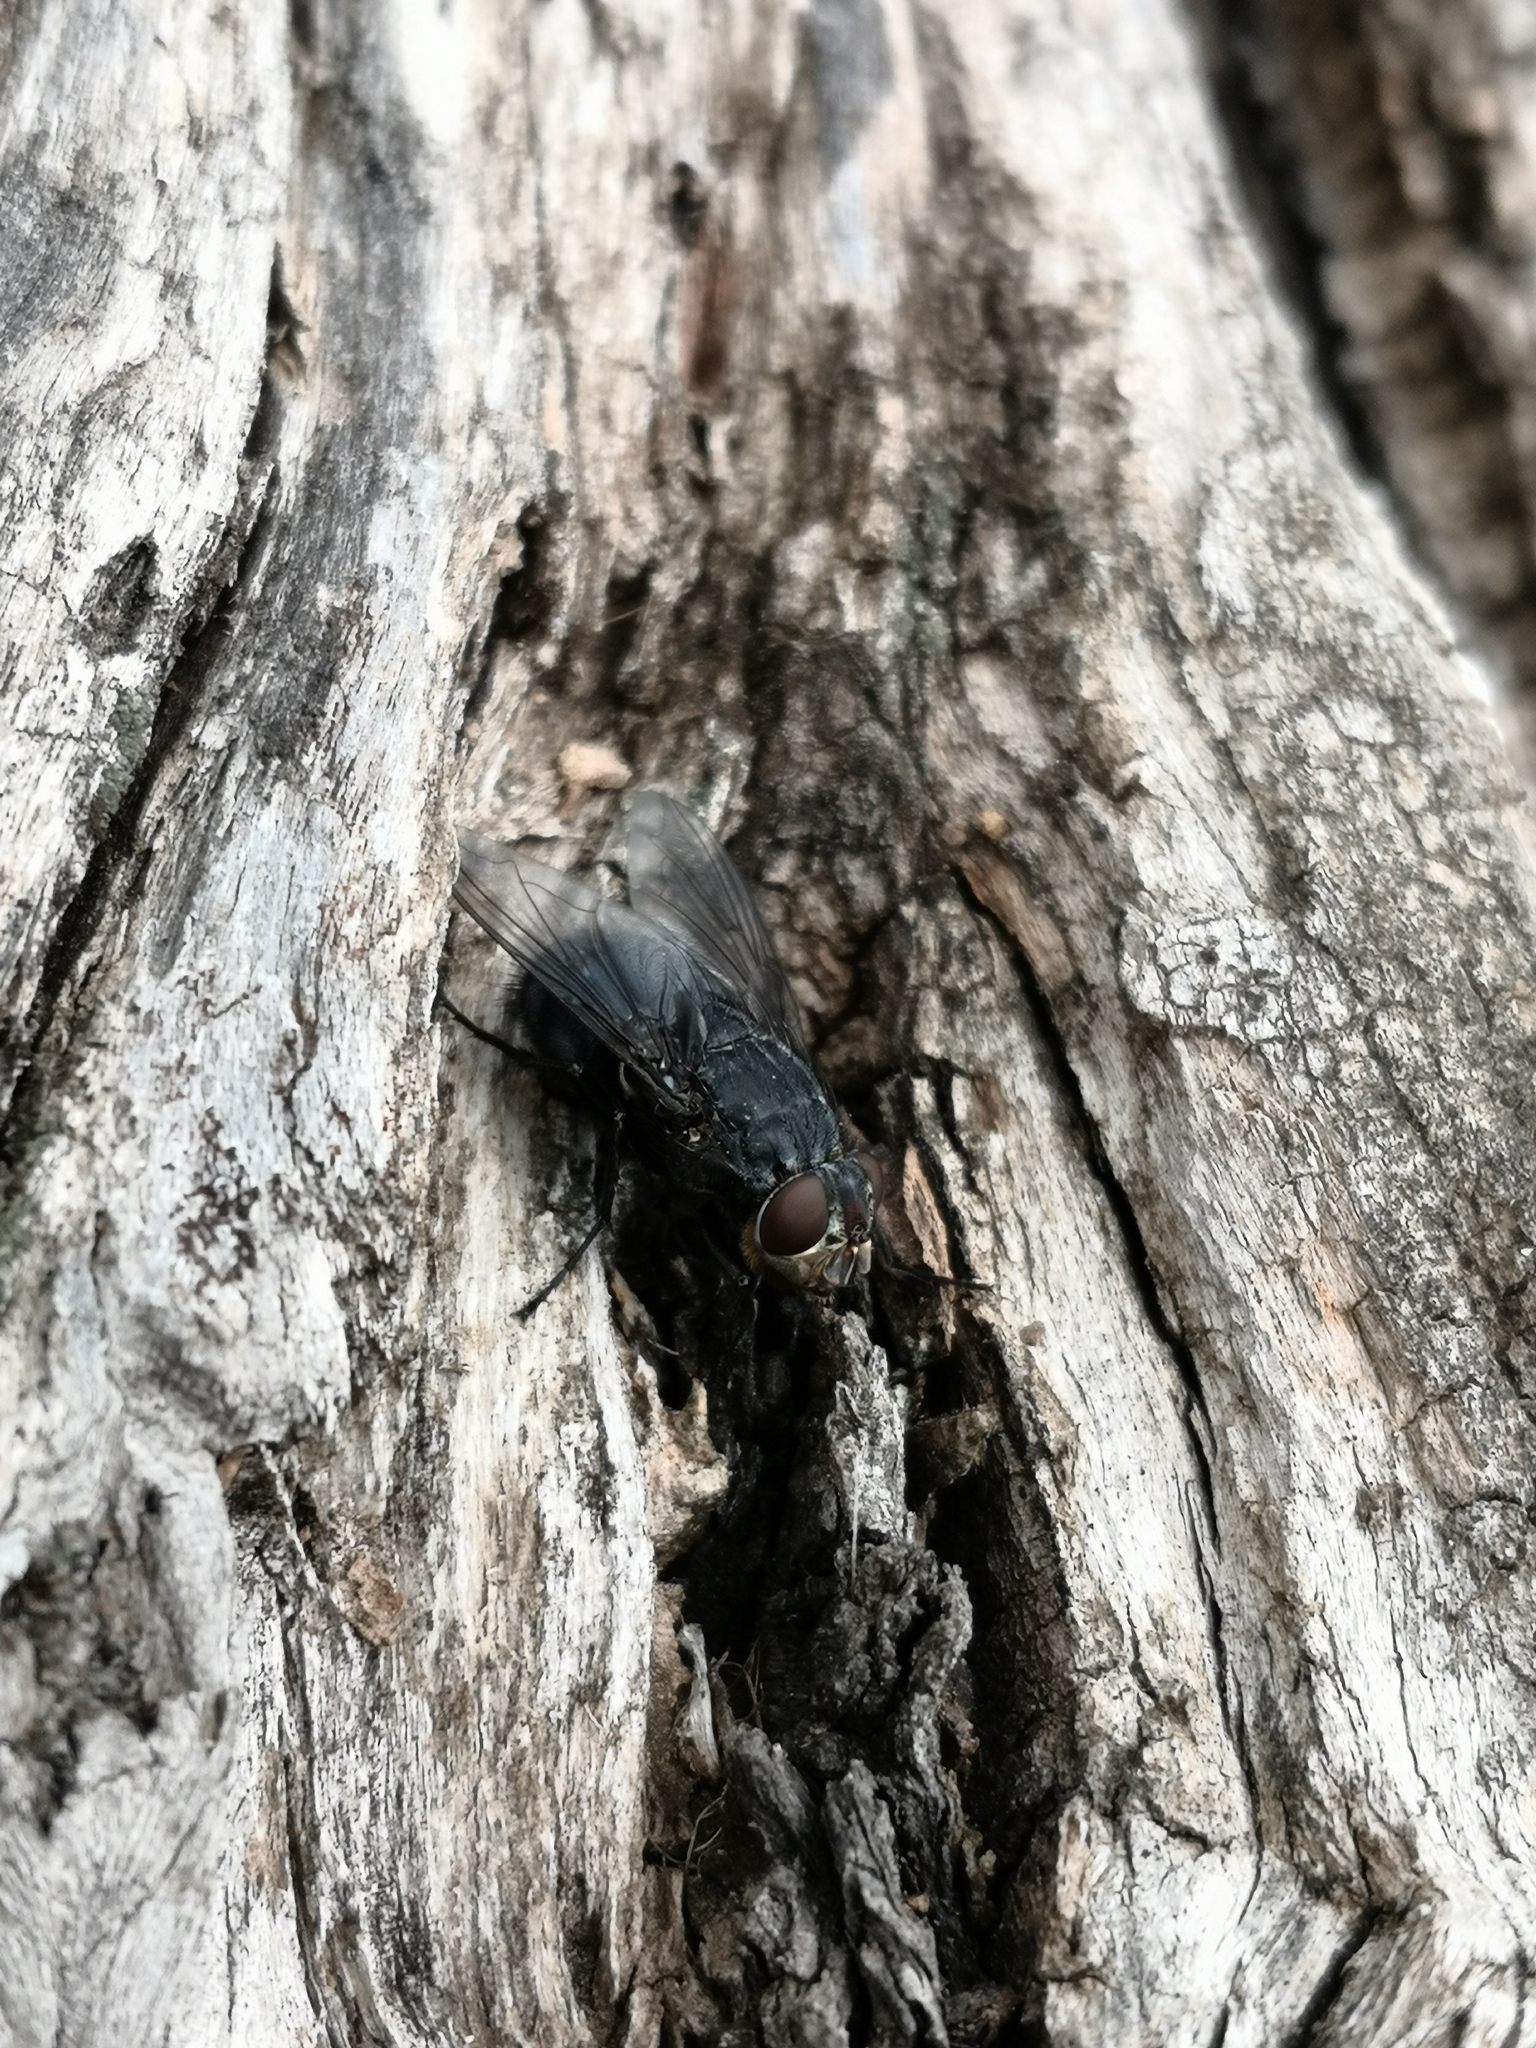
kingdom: Animalia
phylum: Arthropoda
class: Insecta
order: Diptera
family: Calliphoridae
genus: Calliphora
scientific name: Calliphora vicina
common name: Common blow flie
